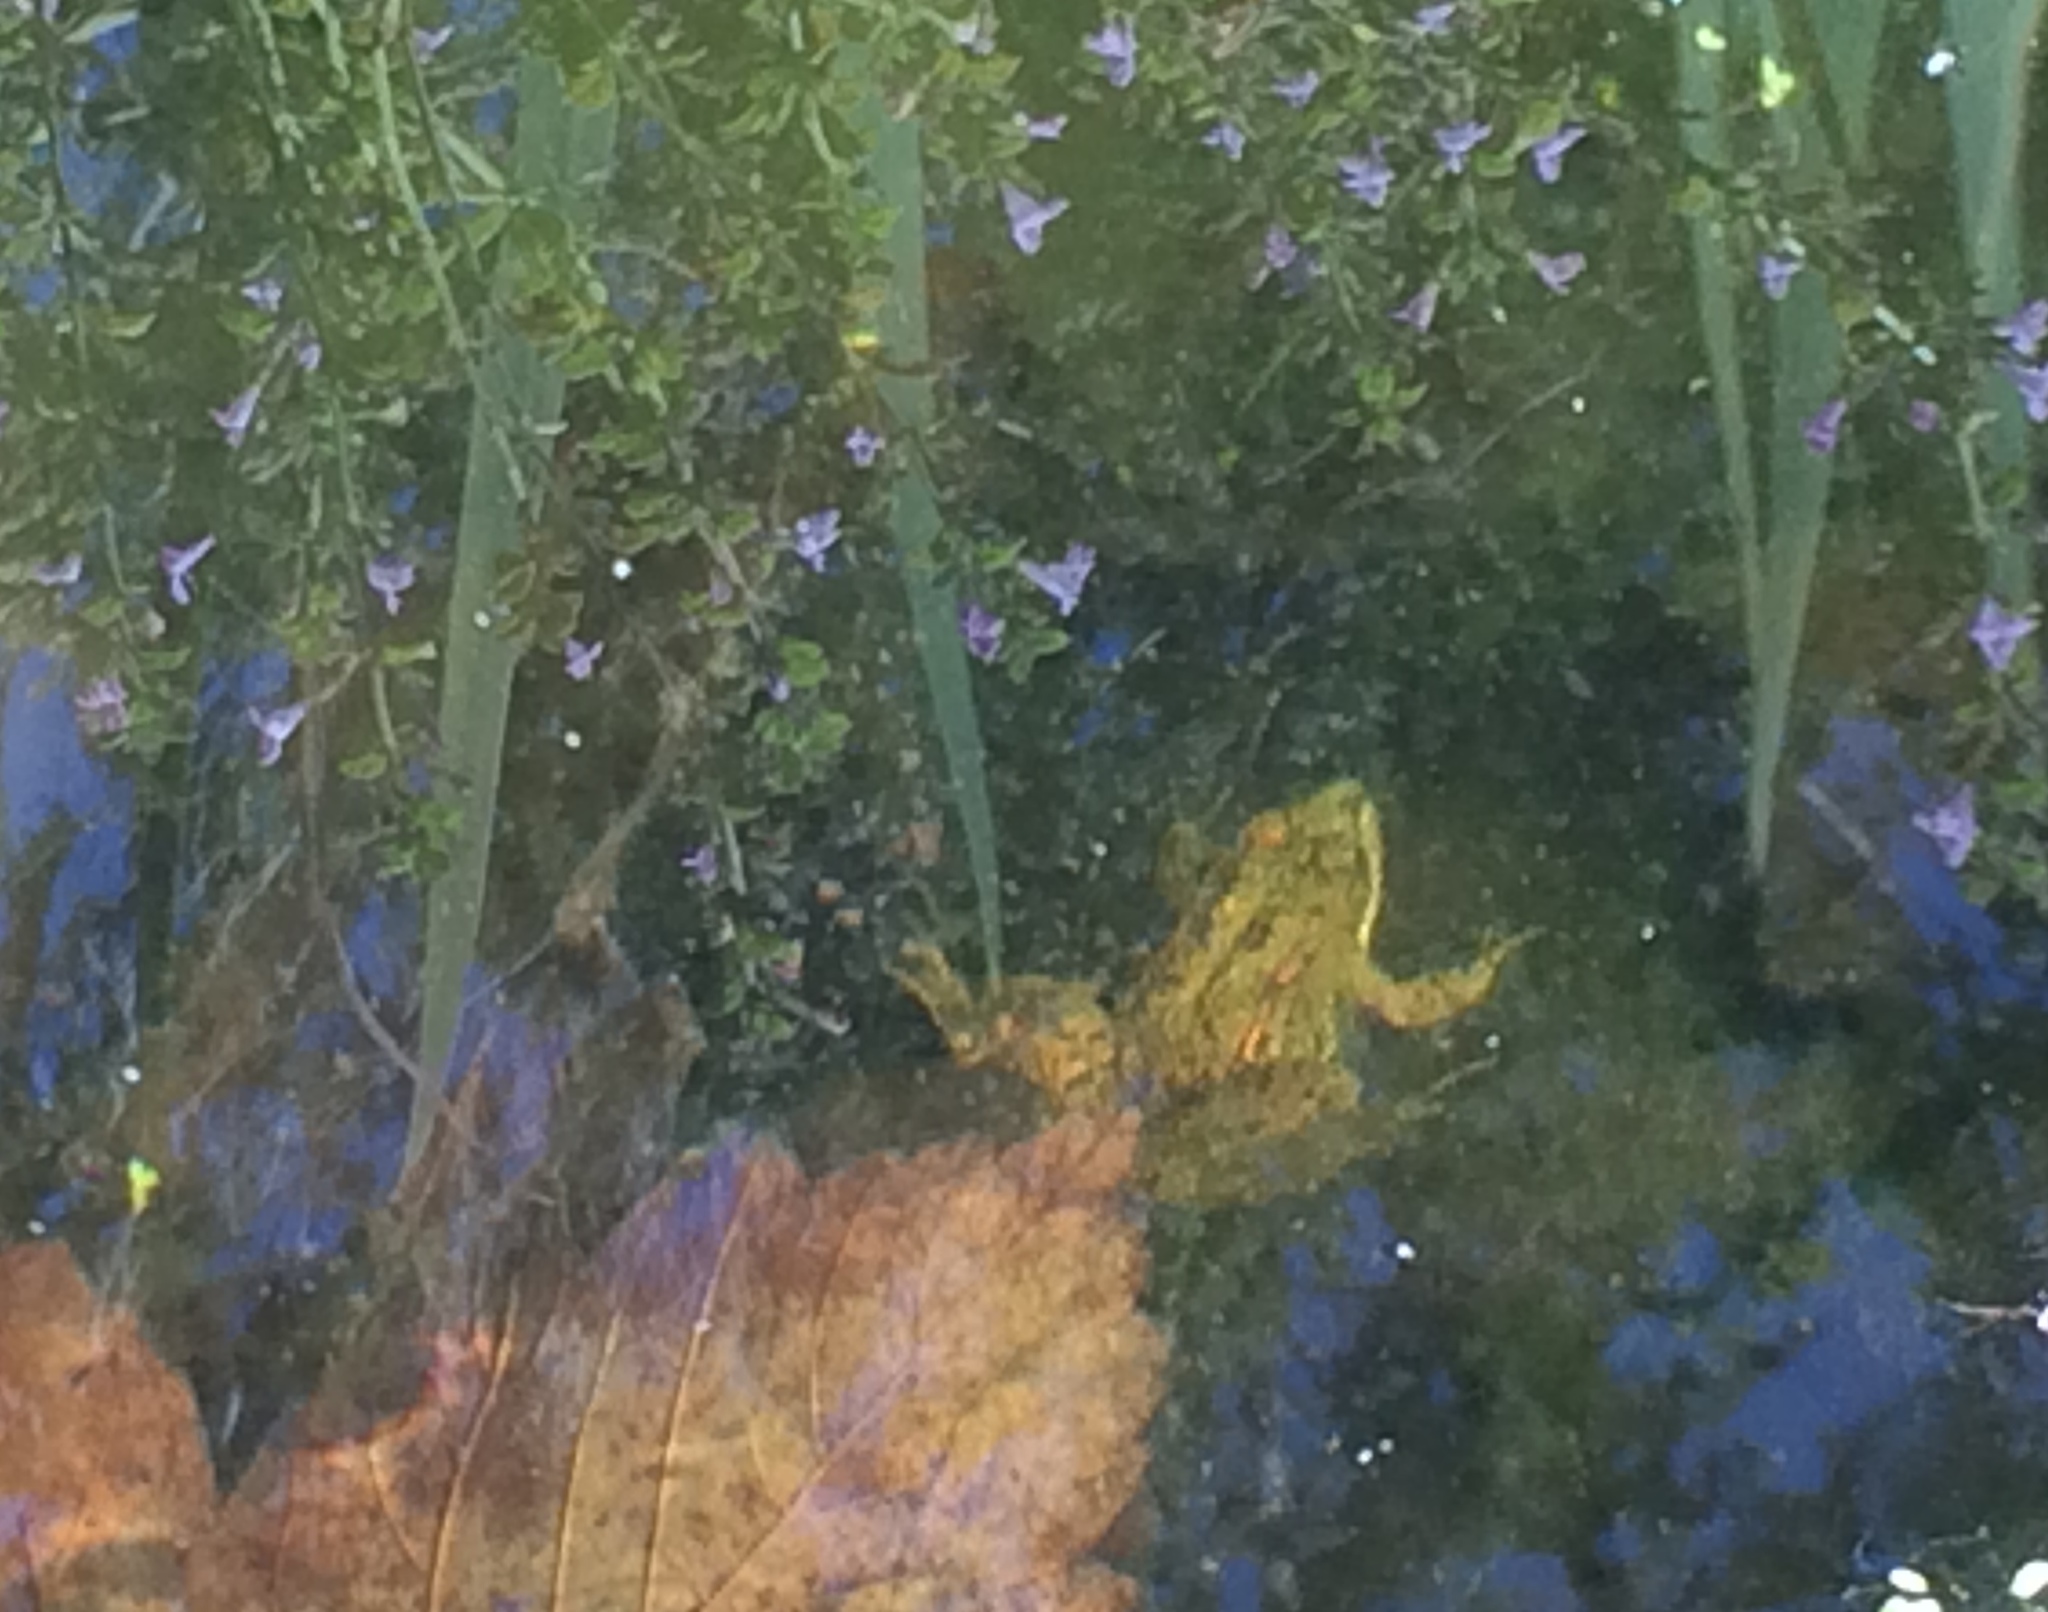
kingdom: Animalia
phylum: Chordata
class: Amphibia
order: Anura
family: Ranidae
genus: Pelophylax
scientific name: Pelophylax perezi
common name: Perez's frog
